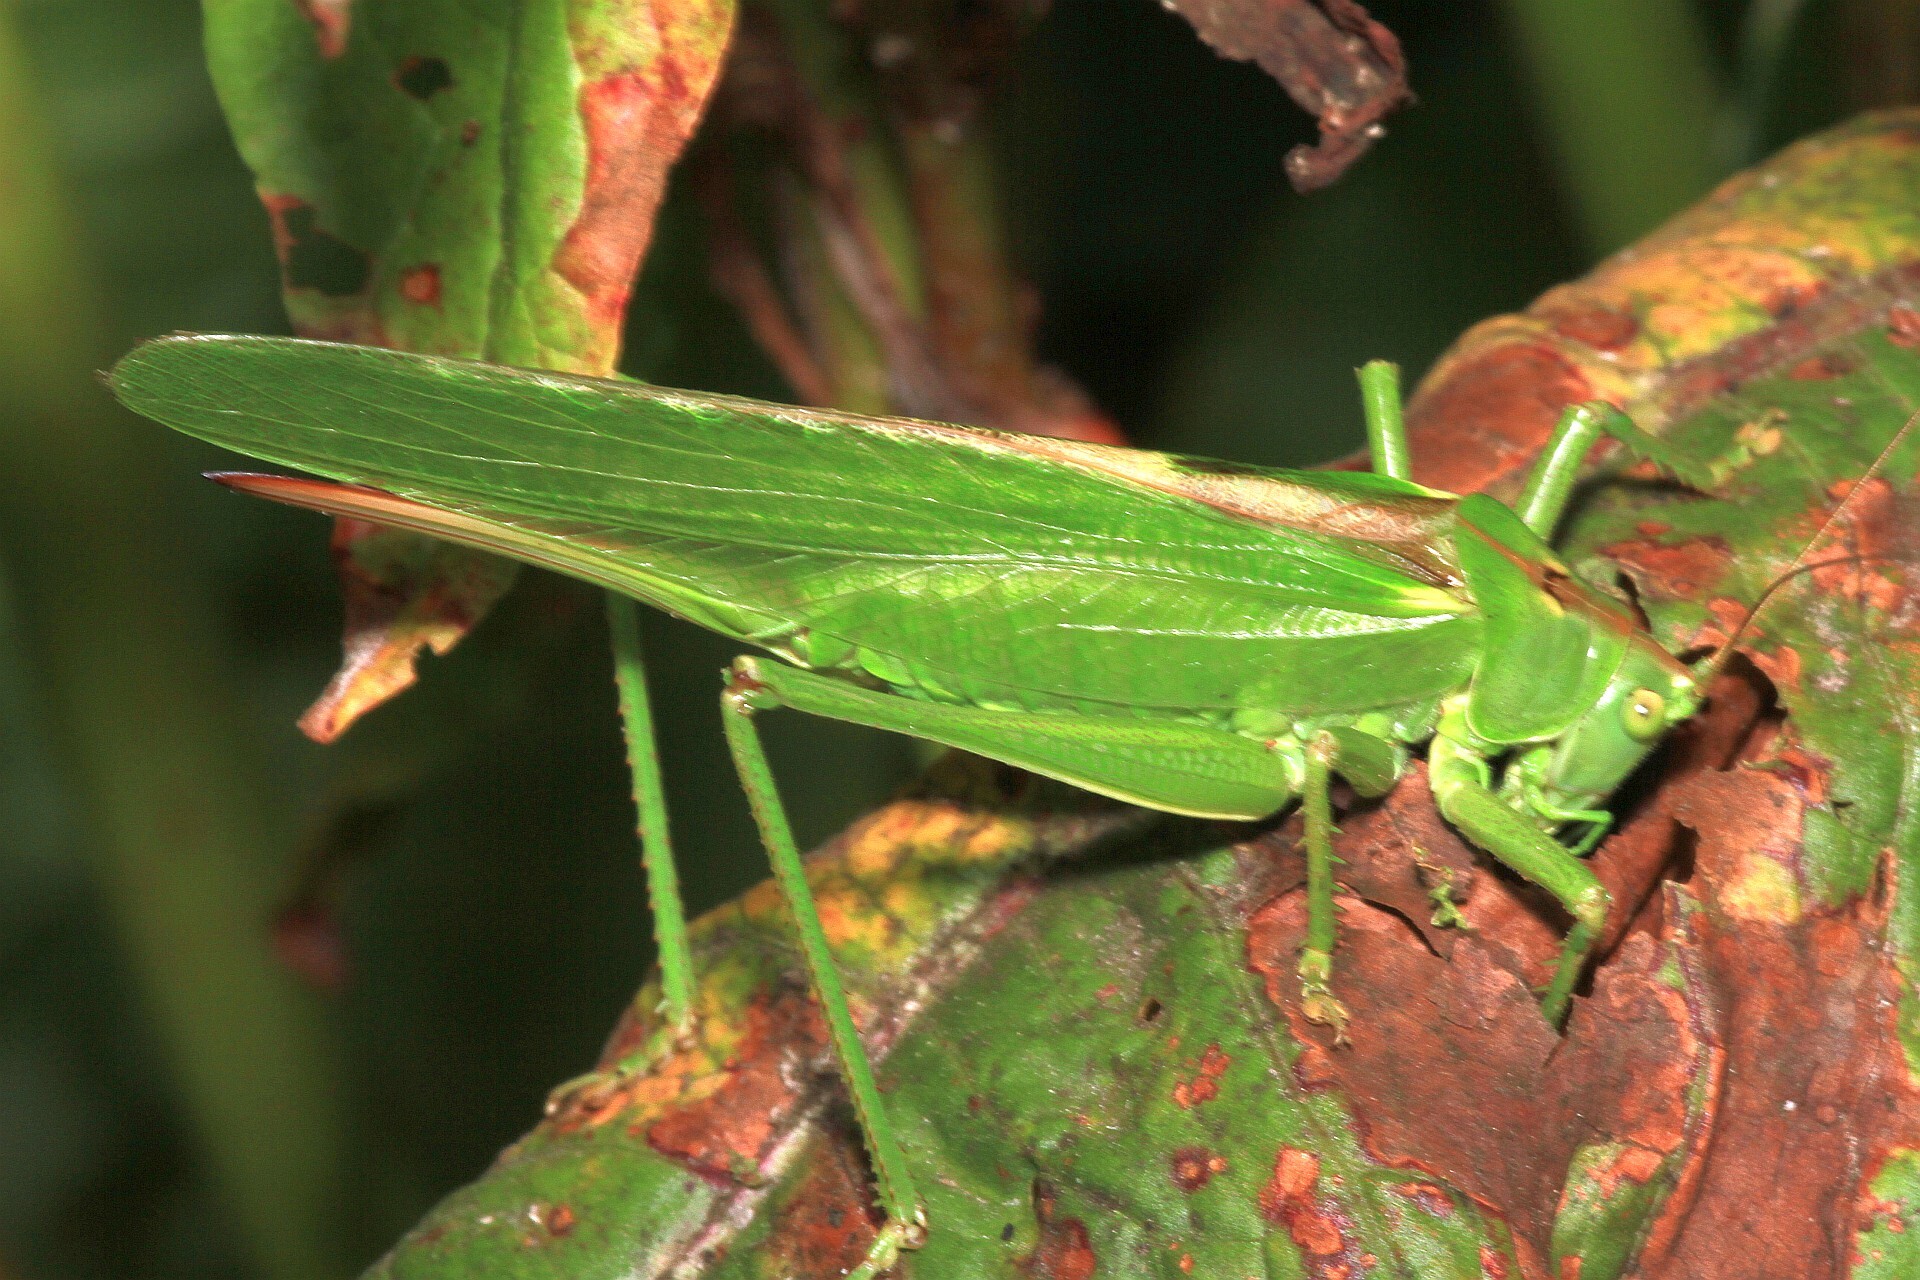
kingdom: Animalia
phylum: Arthropoda
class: Insecta
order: Orthoptera
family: Tettigoniidae
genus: Tettigonia
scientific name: Tettigonia viridissima
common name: Great green bush-cricket
